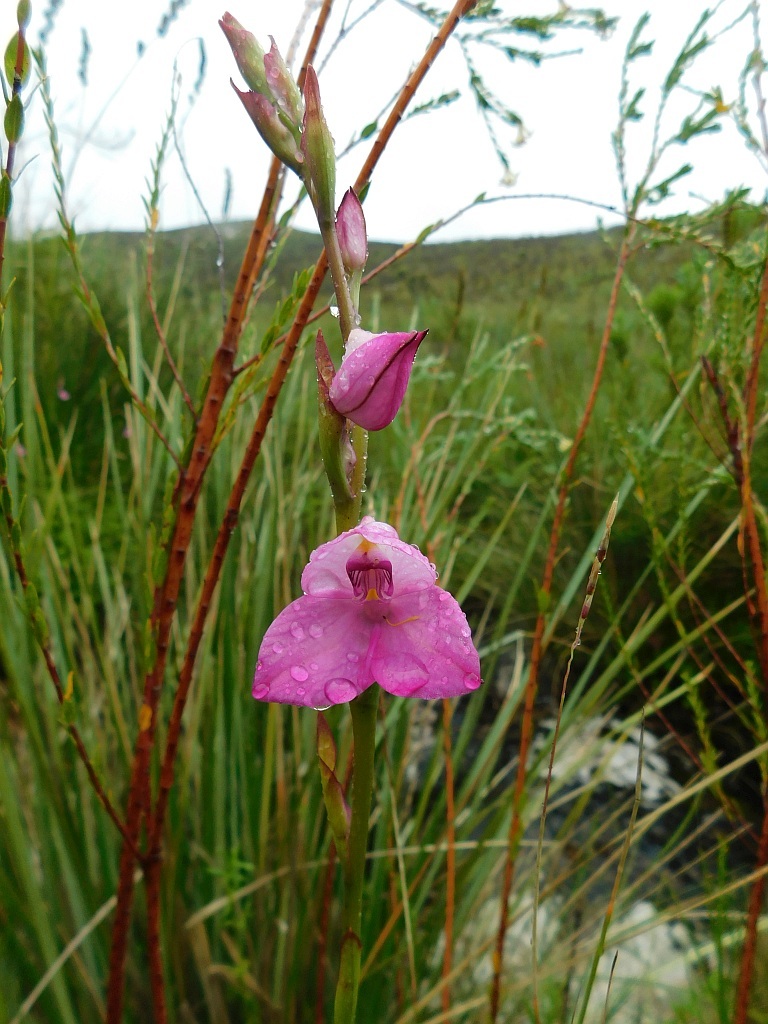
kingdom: Plantae
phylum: Tracheophyta
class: Liliopsida
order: Asparagales
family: Orchidaceae
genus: Disa
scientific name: Disa racemosa
